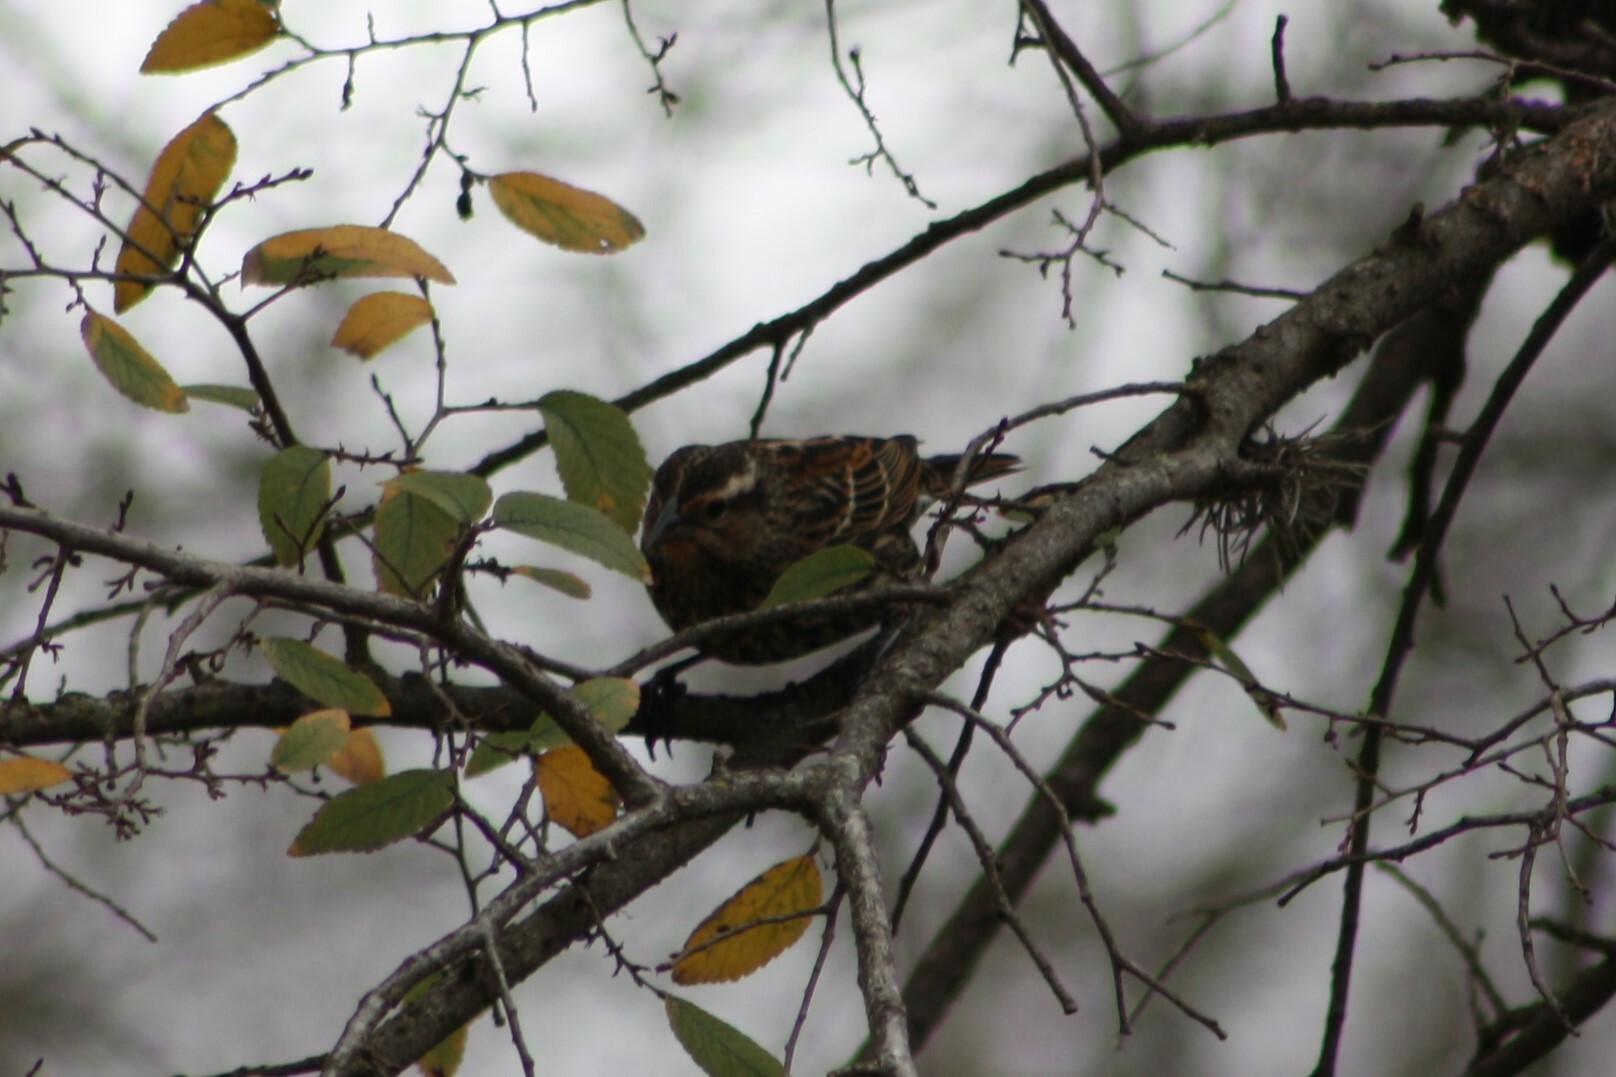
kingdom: Animalia
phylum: Chordata
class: Aves
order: Passeriformes
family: Icteridae
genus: Agelaius
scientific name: Agelaius phoeniceus
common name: Red-winged blackbird
